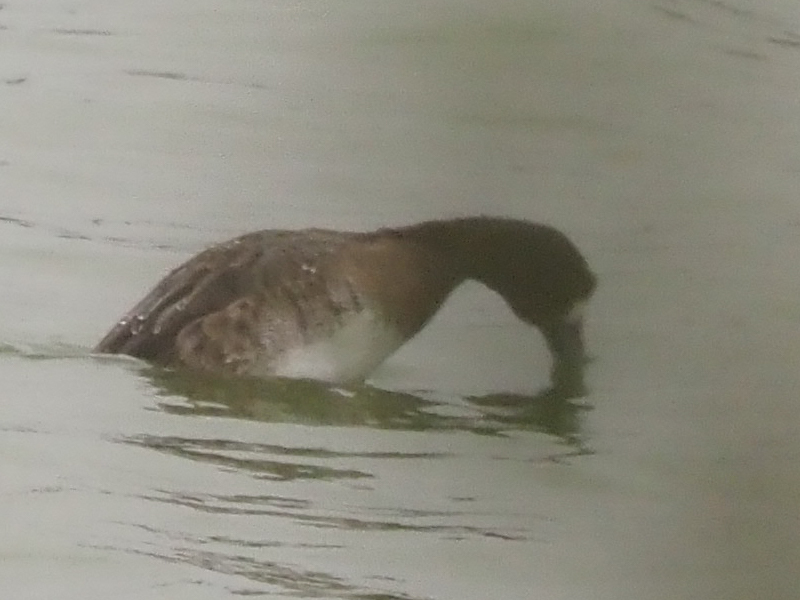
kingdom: Animalia
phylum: Chordata
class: Aves
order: Anseriformes
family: Anatidae
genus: Aythya
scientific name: Aythya affinis
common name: Lesser scaup
